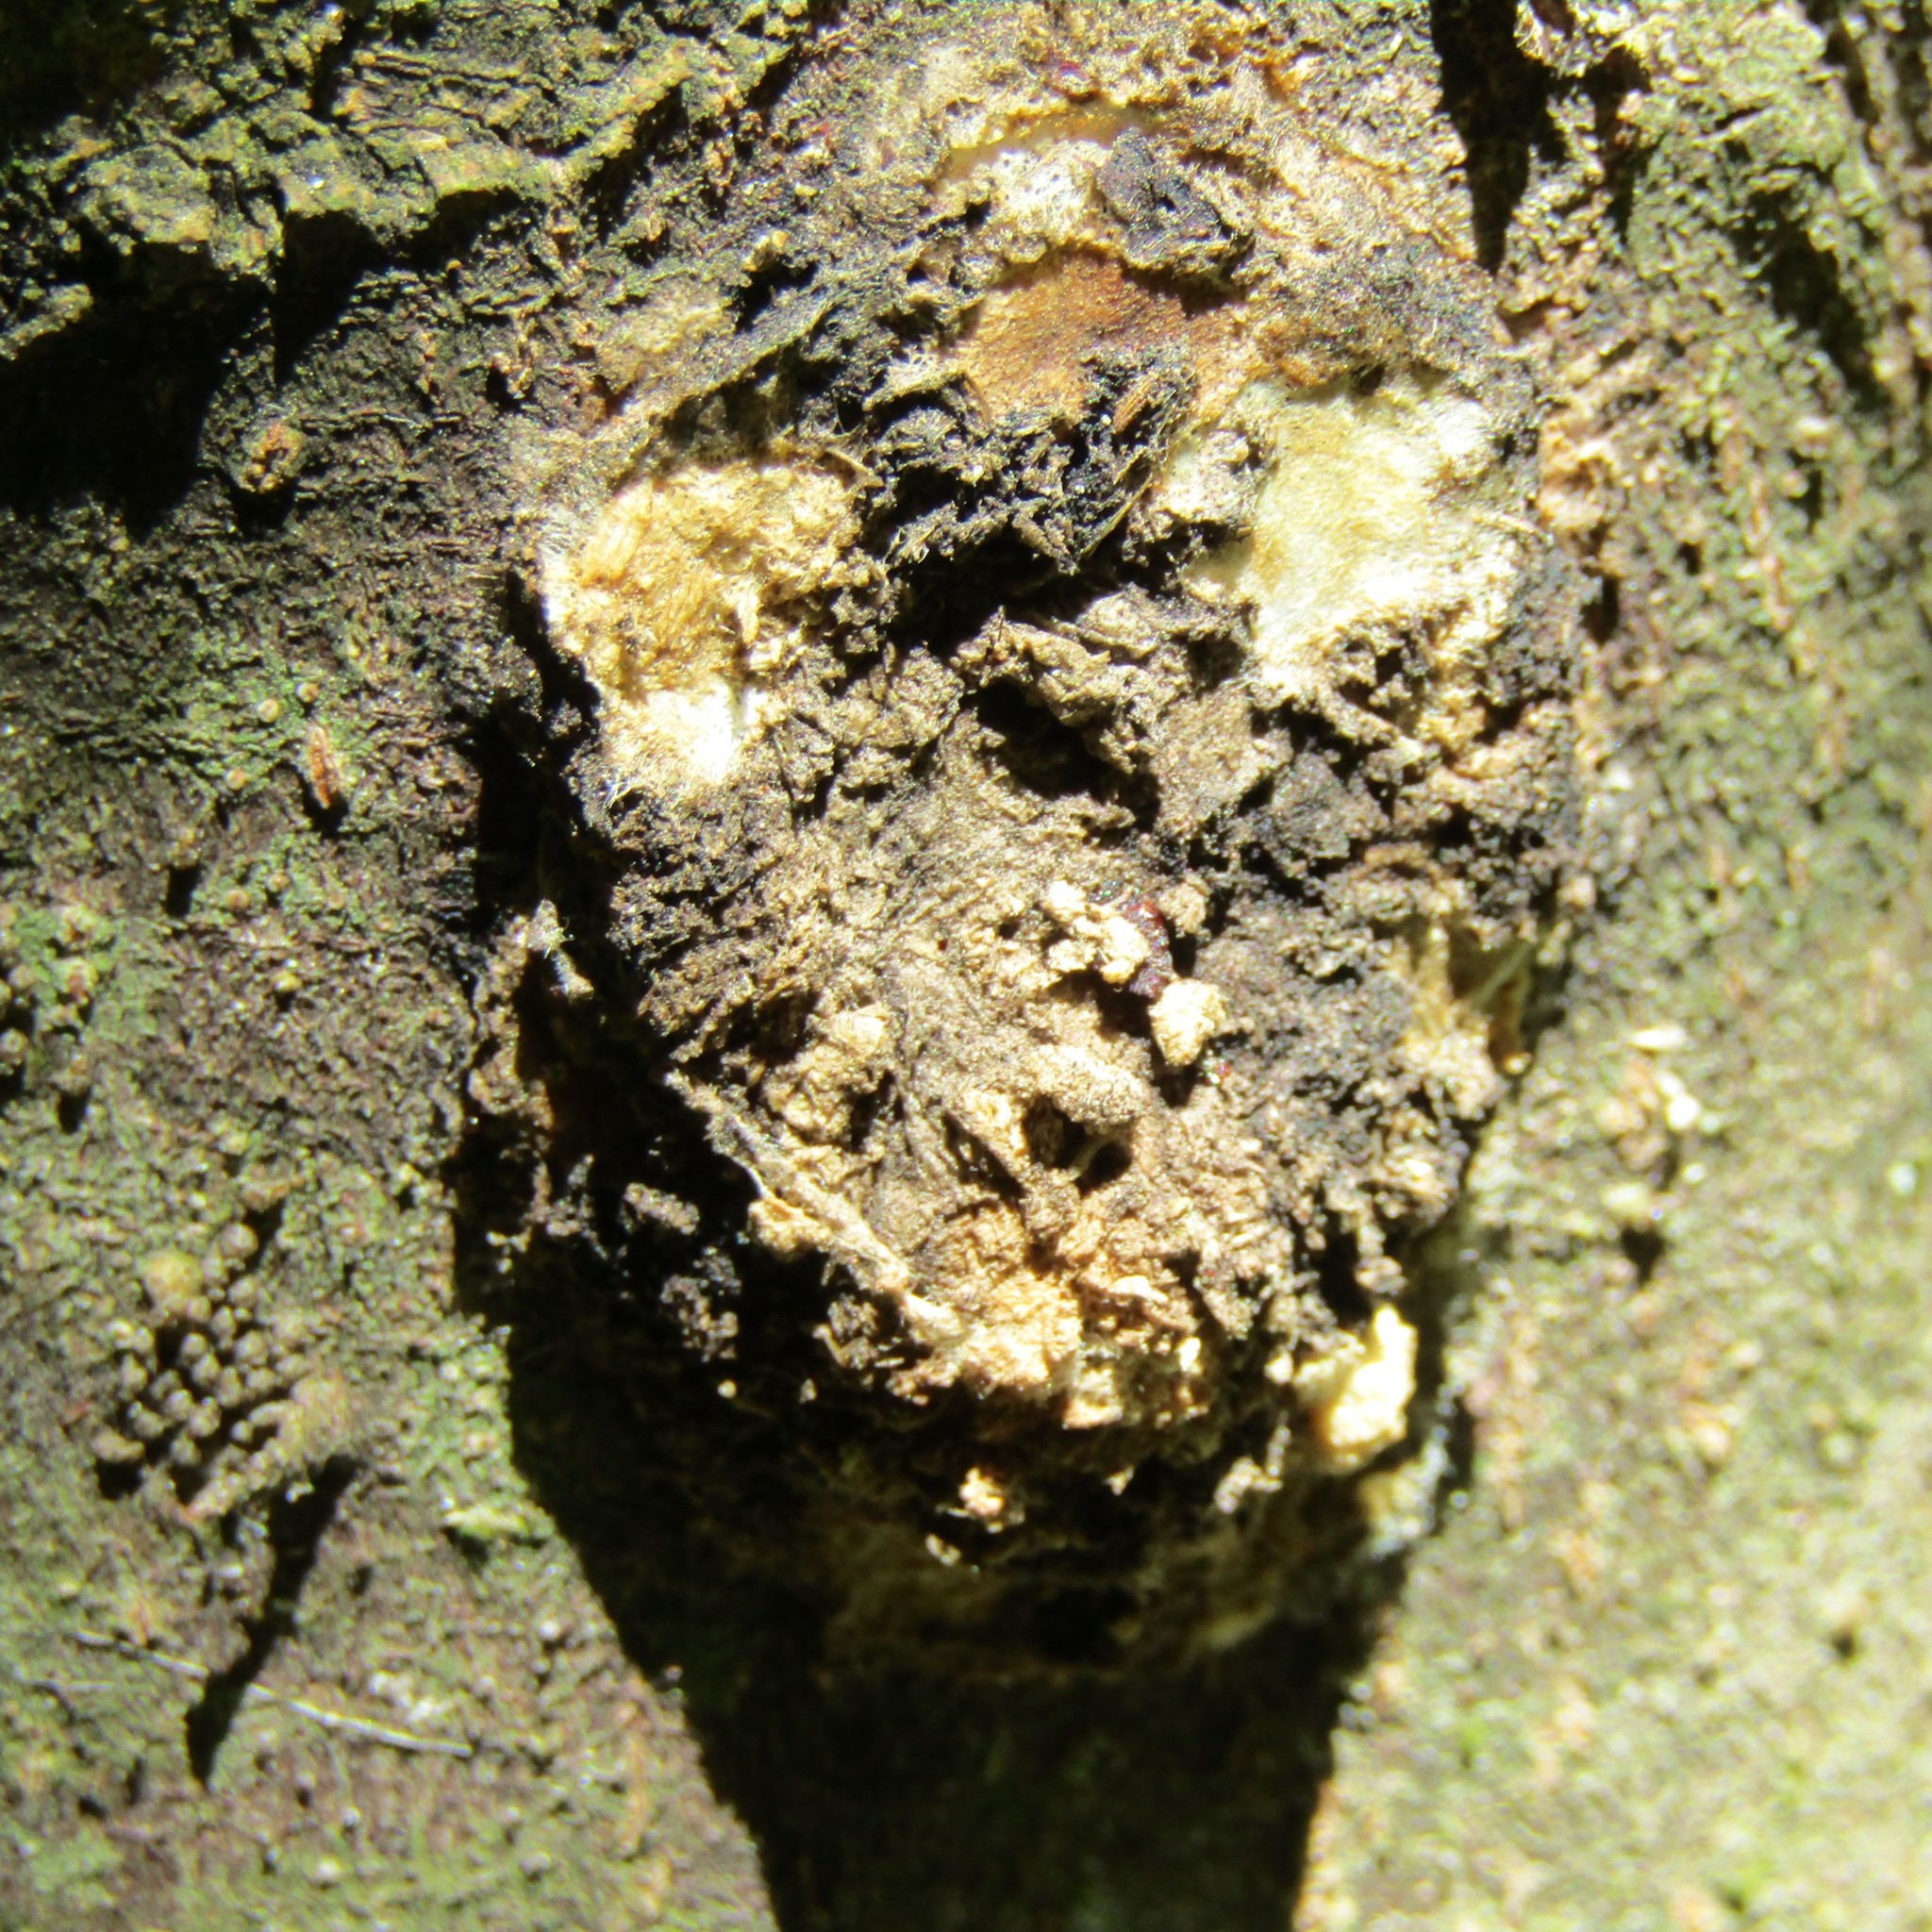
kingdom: Animalia
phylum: Arthropoda
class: Insecta
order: Lepidoptera
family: Hepialidae
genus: Aenetus
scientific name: Aenetus virescens
